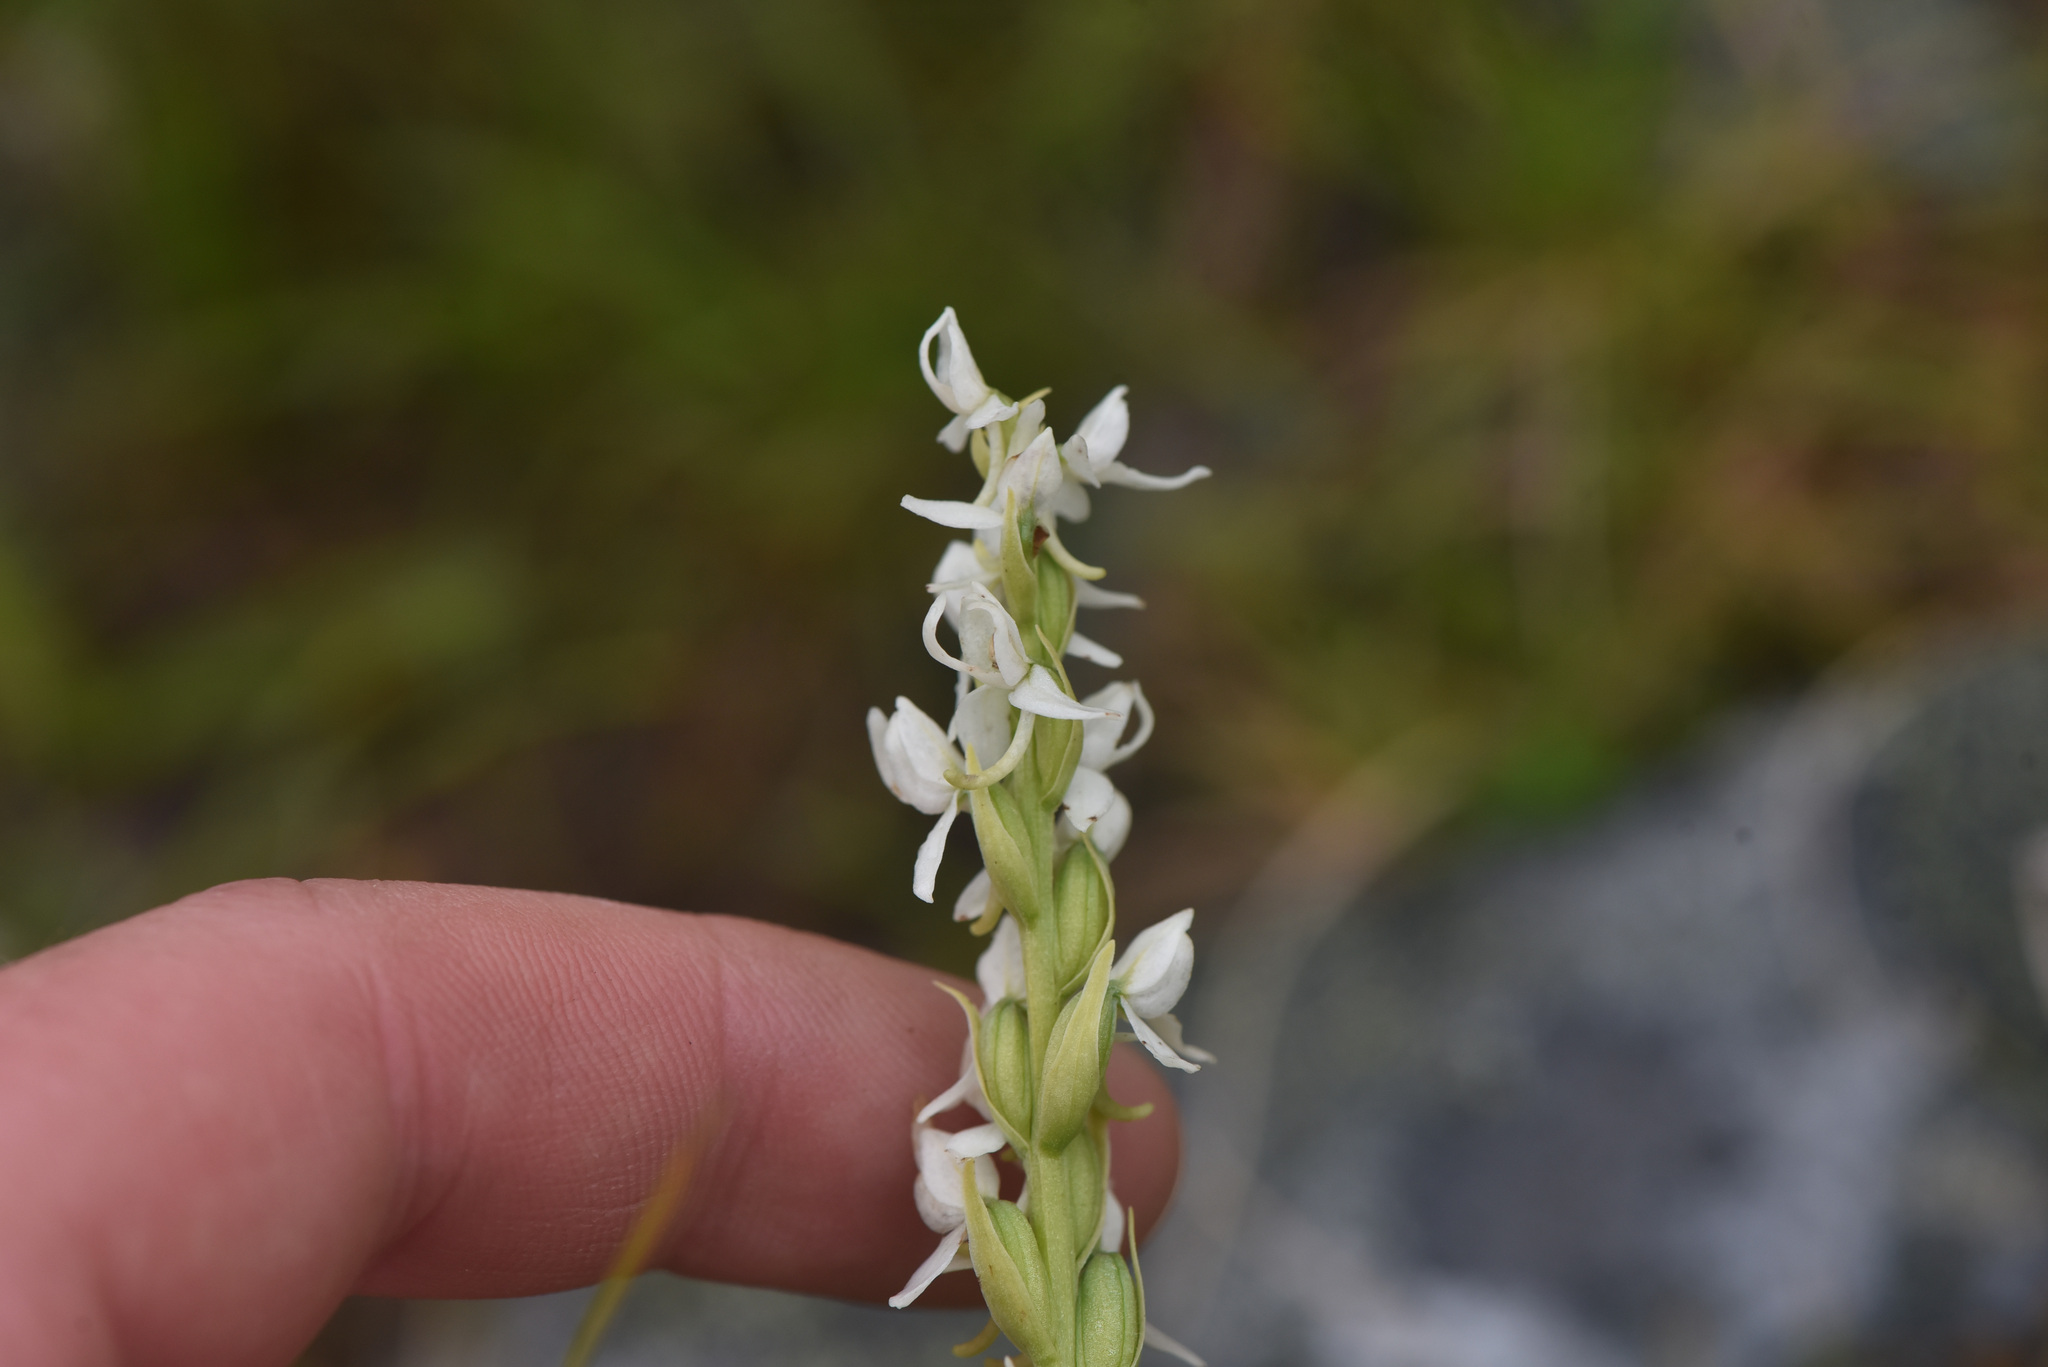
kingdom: Plantae
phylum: Tracheophyta
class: Liliopsida
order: Asparagales
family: Orchidaceae
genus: Platanthera
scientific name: Platanthera dilatata
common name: Bog candles
